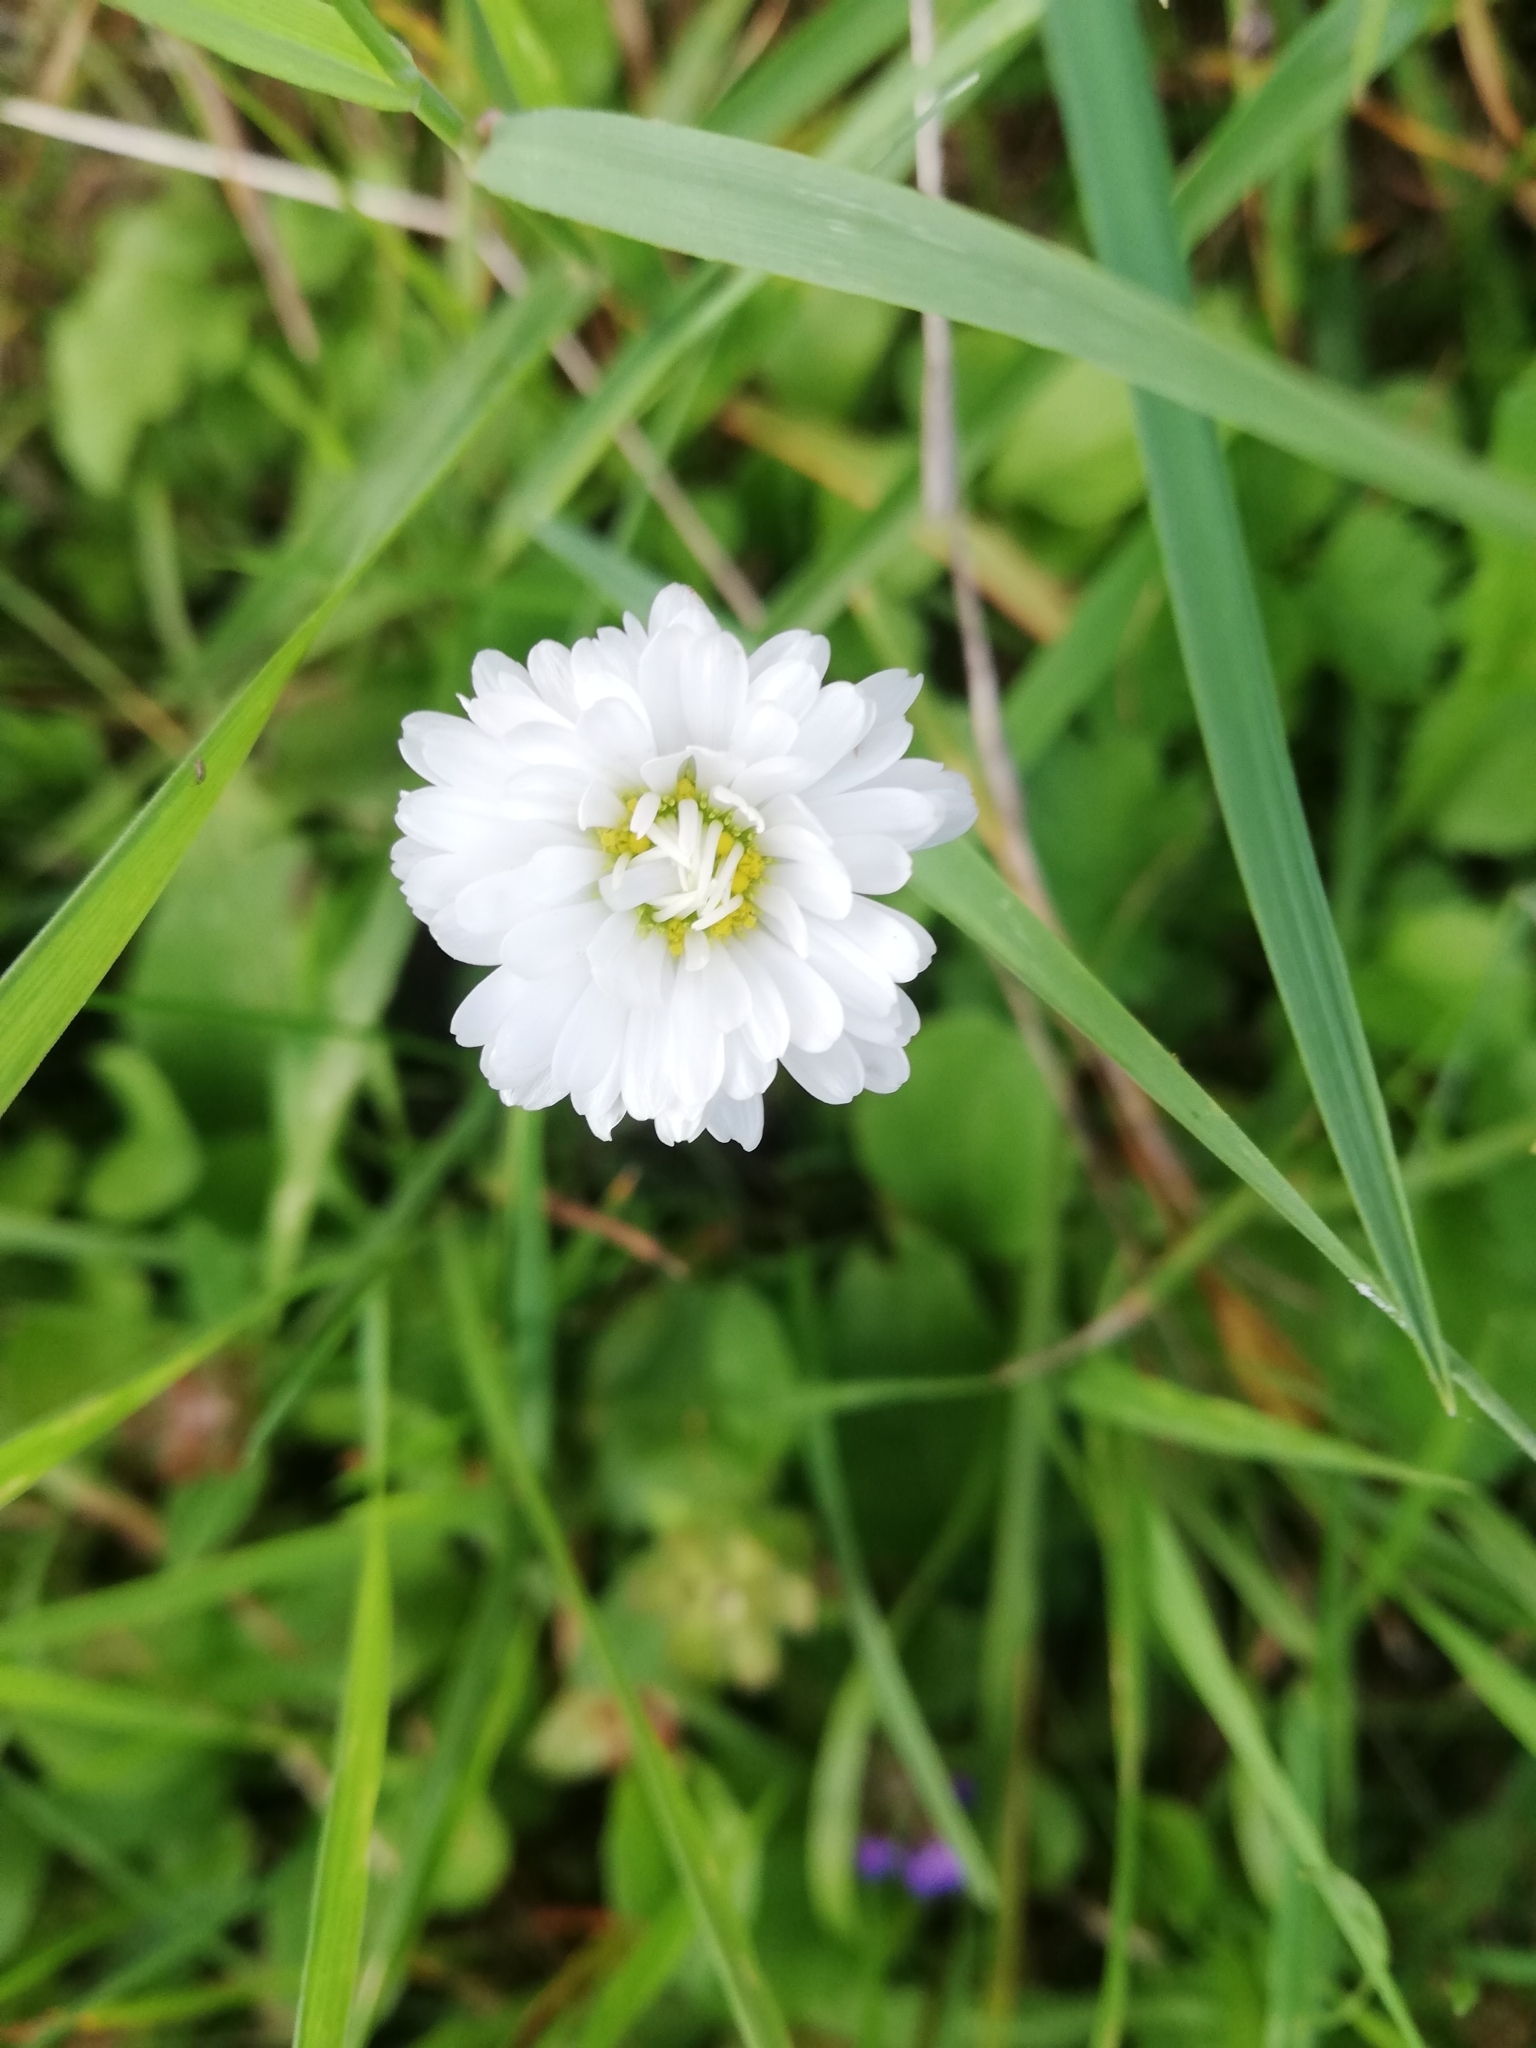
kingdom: Plantae
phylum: Tracheophyta
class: Magnoliopsida
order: Asterales
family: Asteraceae
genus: Bellis
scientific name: Bellis perennis
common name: Lawndaisy
